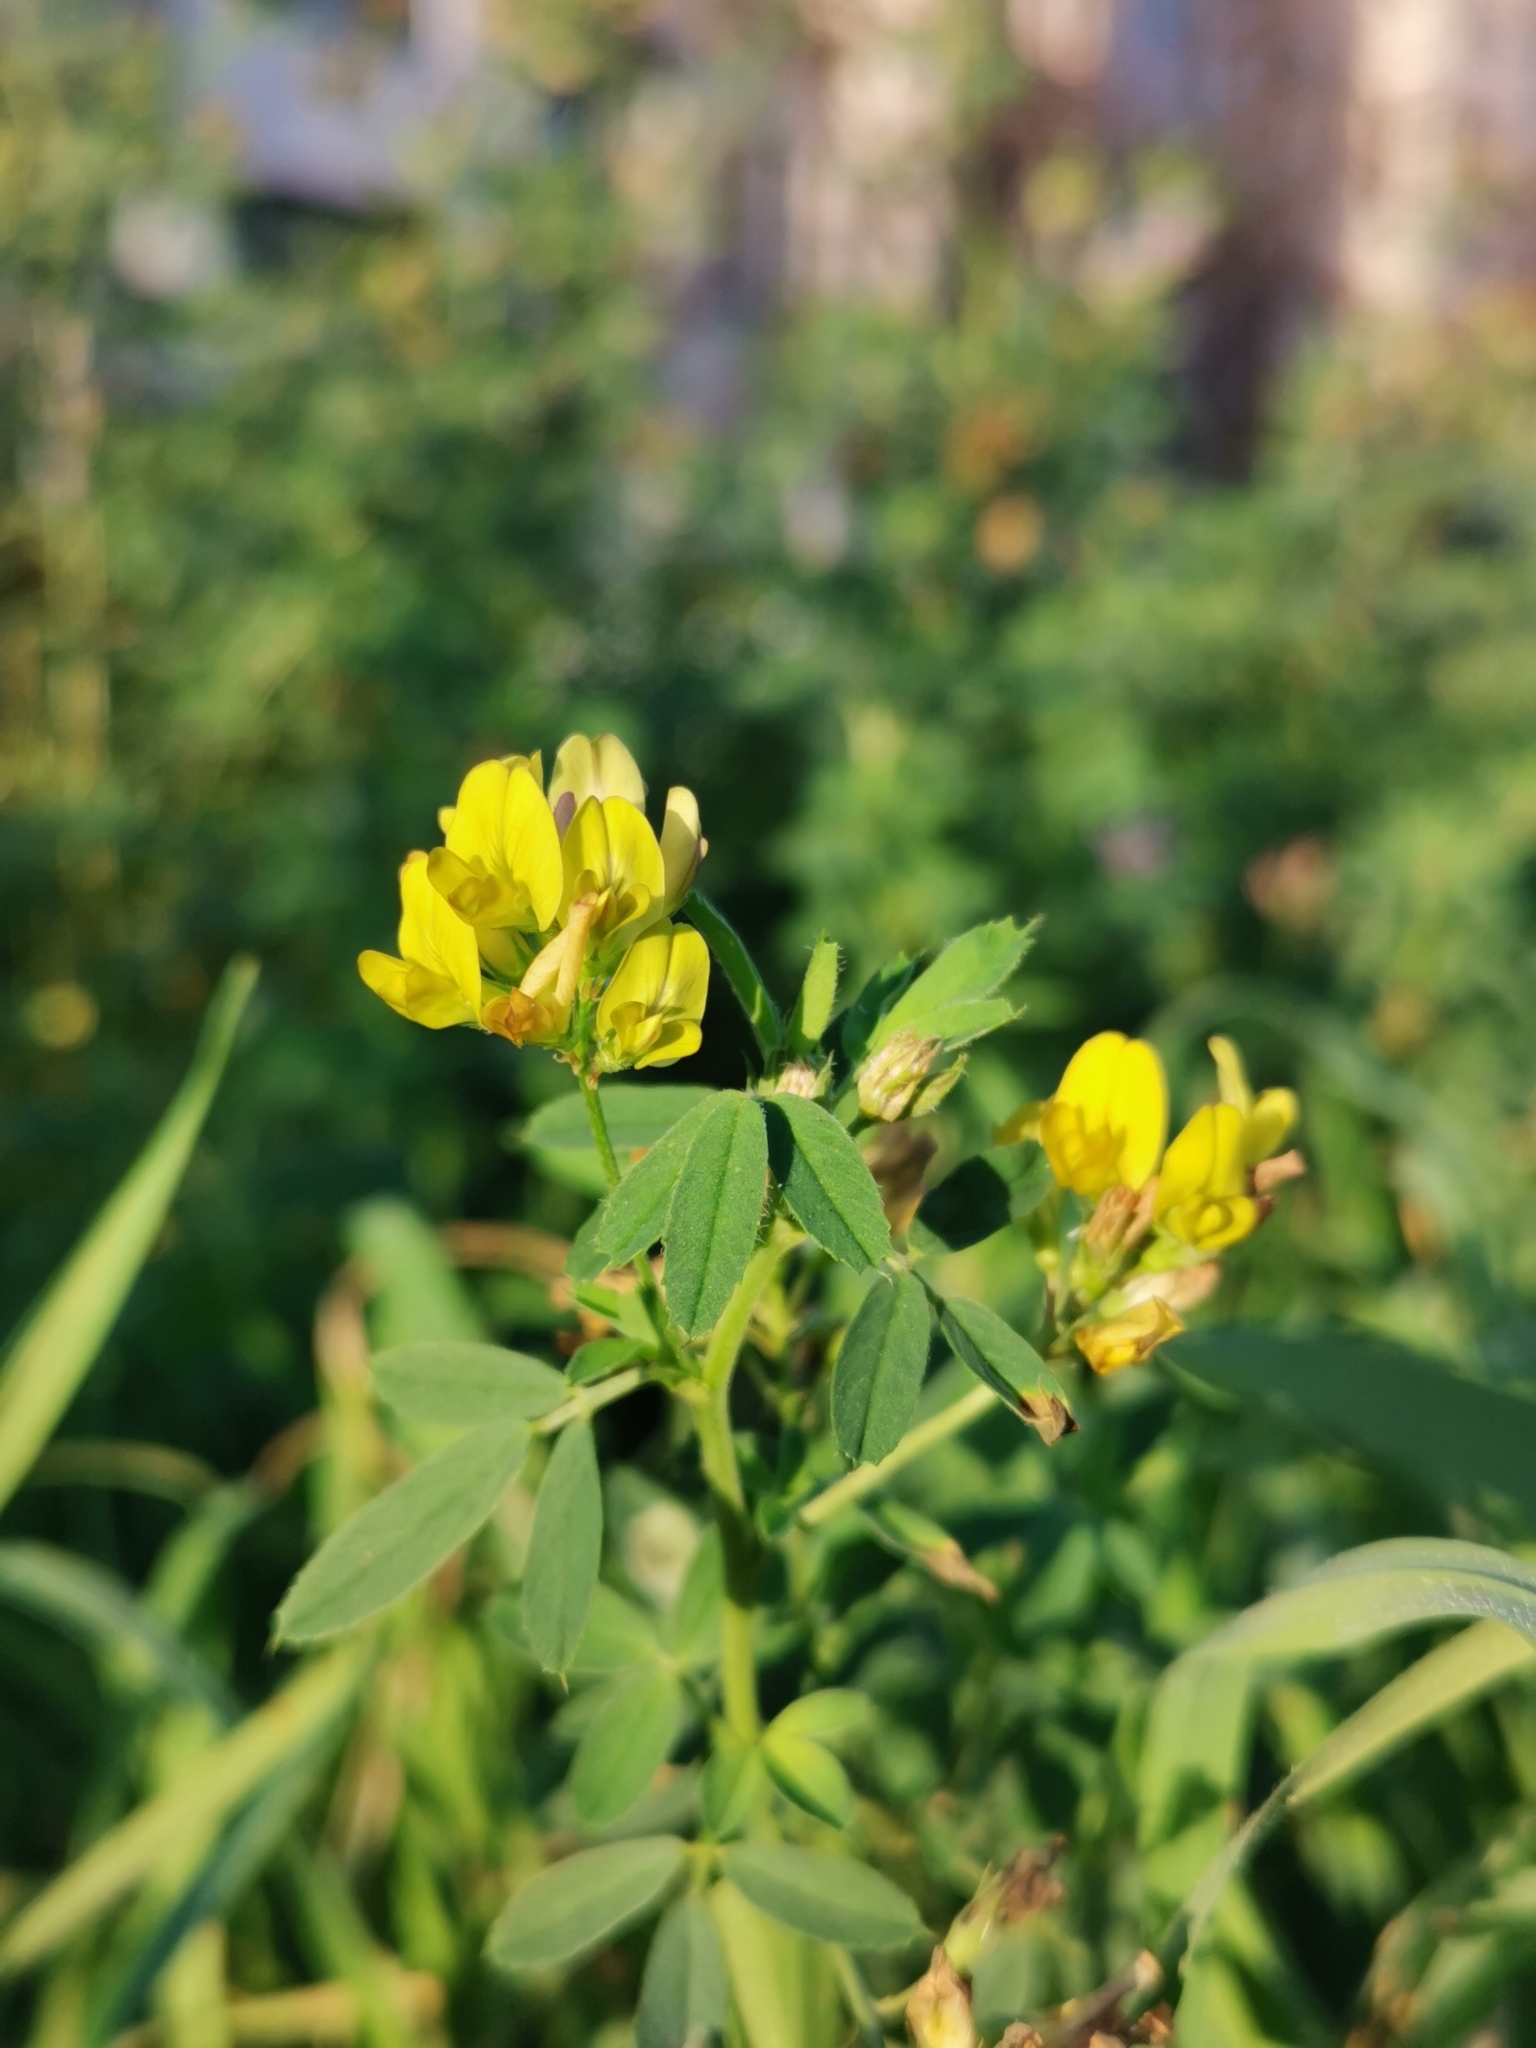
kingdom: Plantae
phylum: Tracheophyta
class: Magnoliopsida
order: Fabales
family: Fabaceae
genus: Medicago
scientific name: Medicago falcata
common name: Sickle medick
